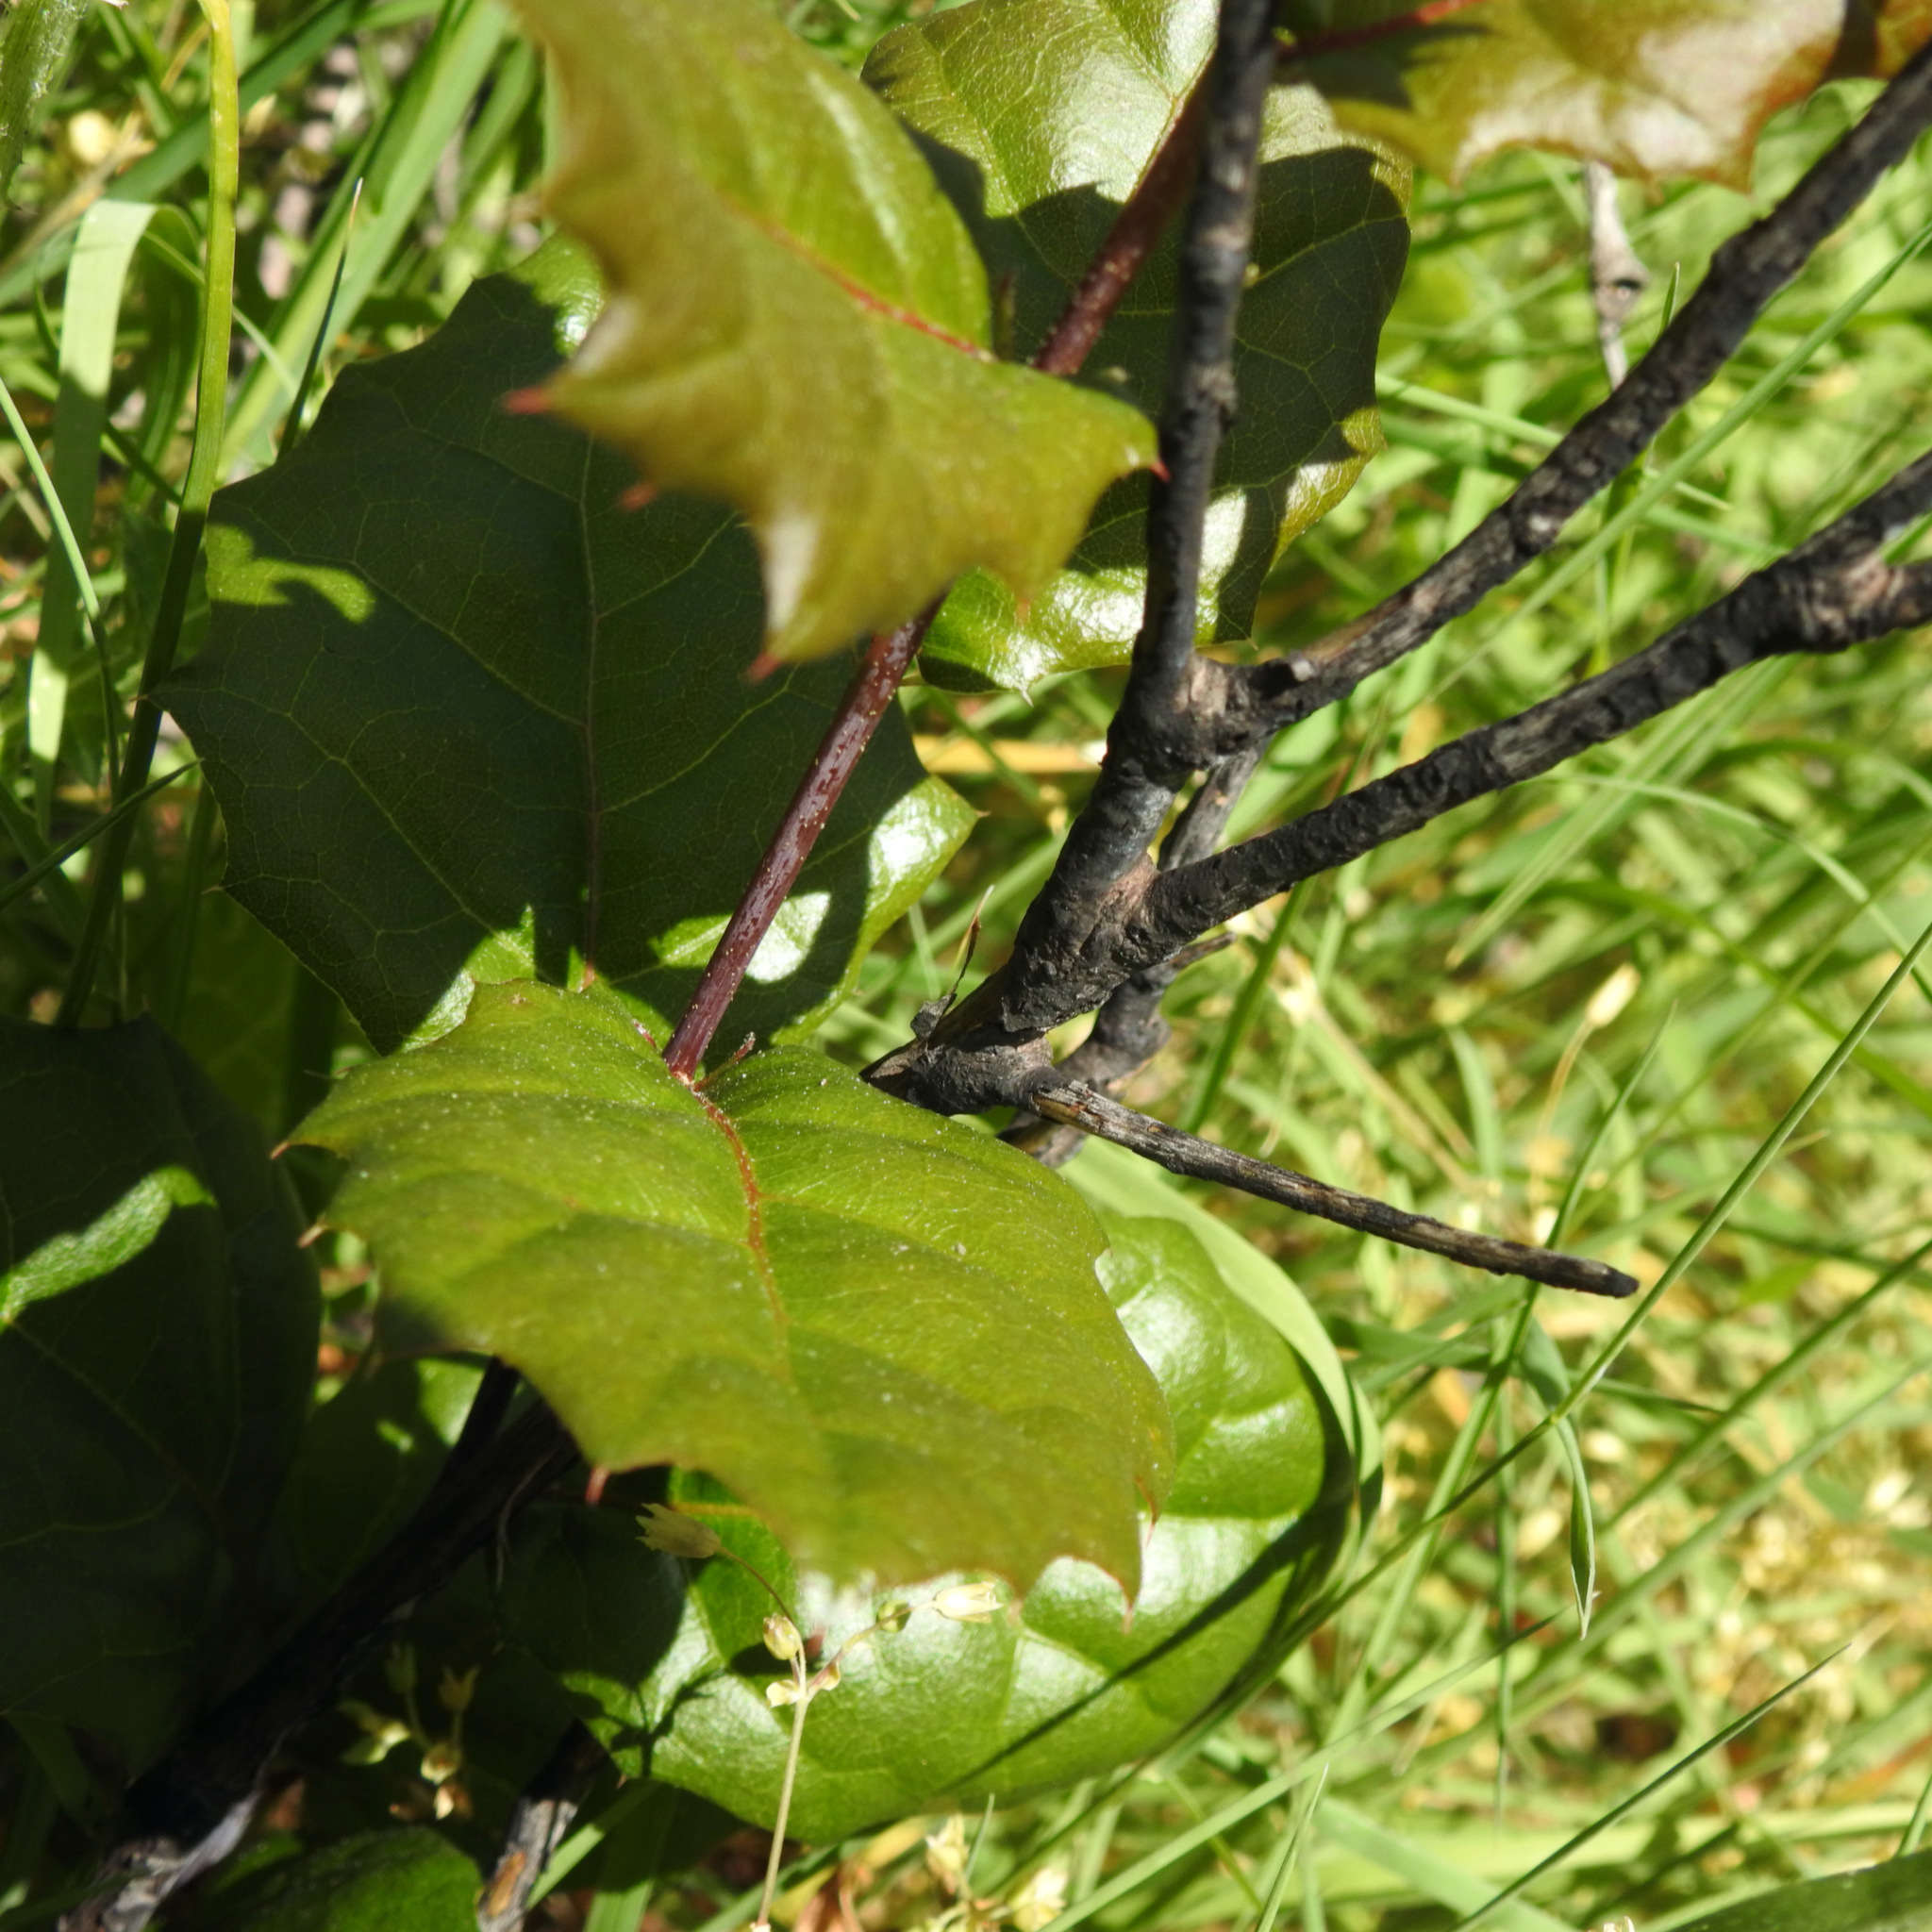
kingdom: Plantae
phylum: Tracheophyta
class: Magnoliopsida
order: Fagales
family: Fagaceae
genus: Quercus
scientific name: Quercus agrifolia
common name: California live oak
